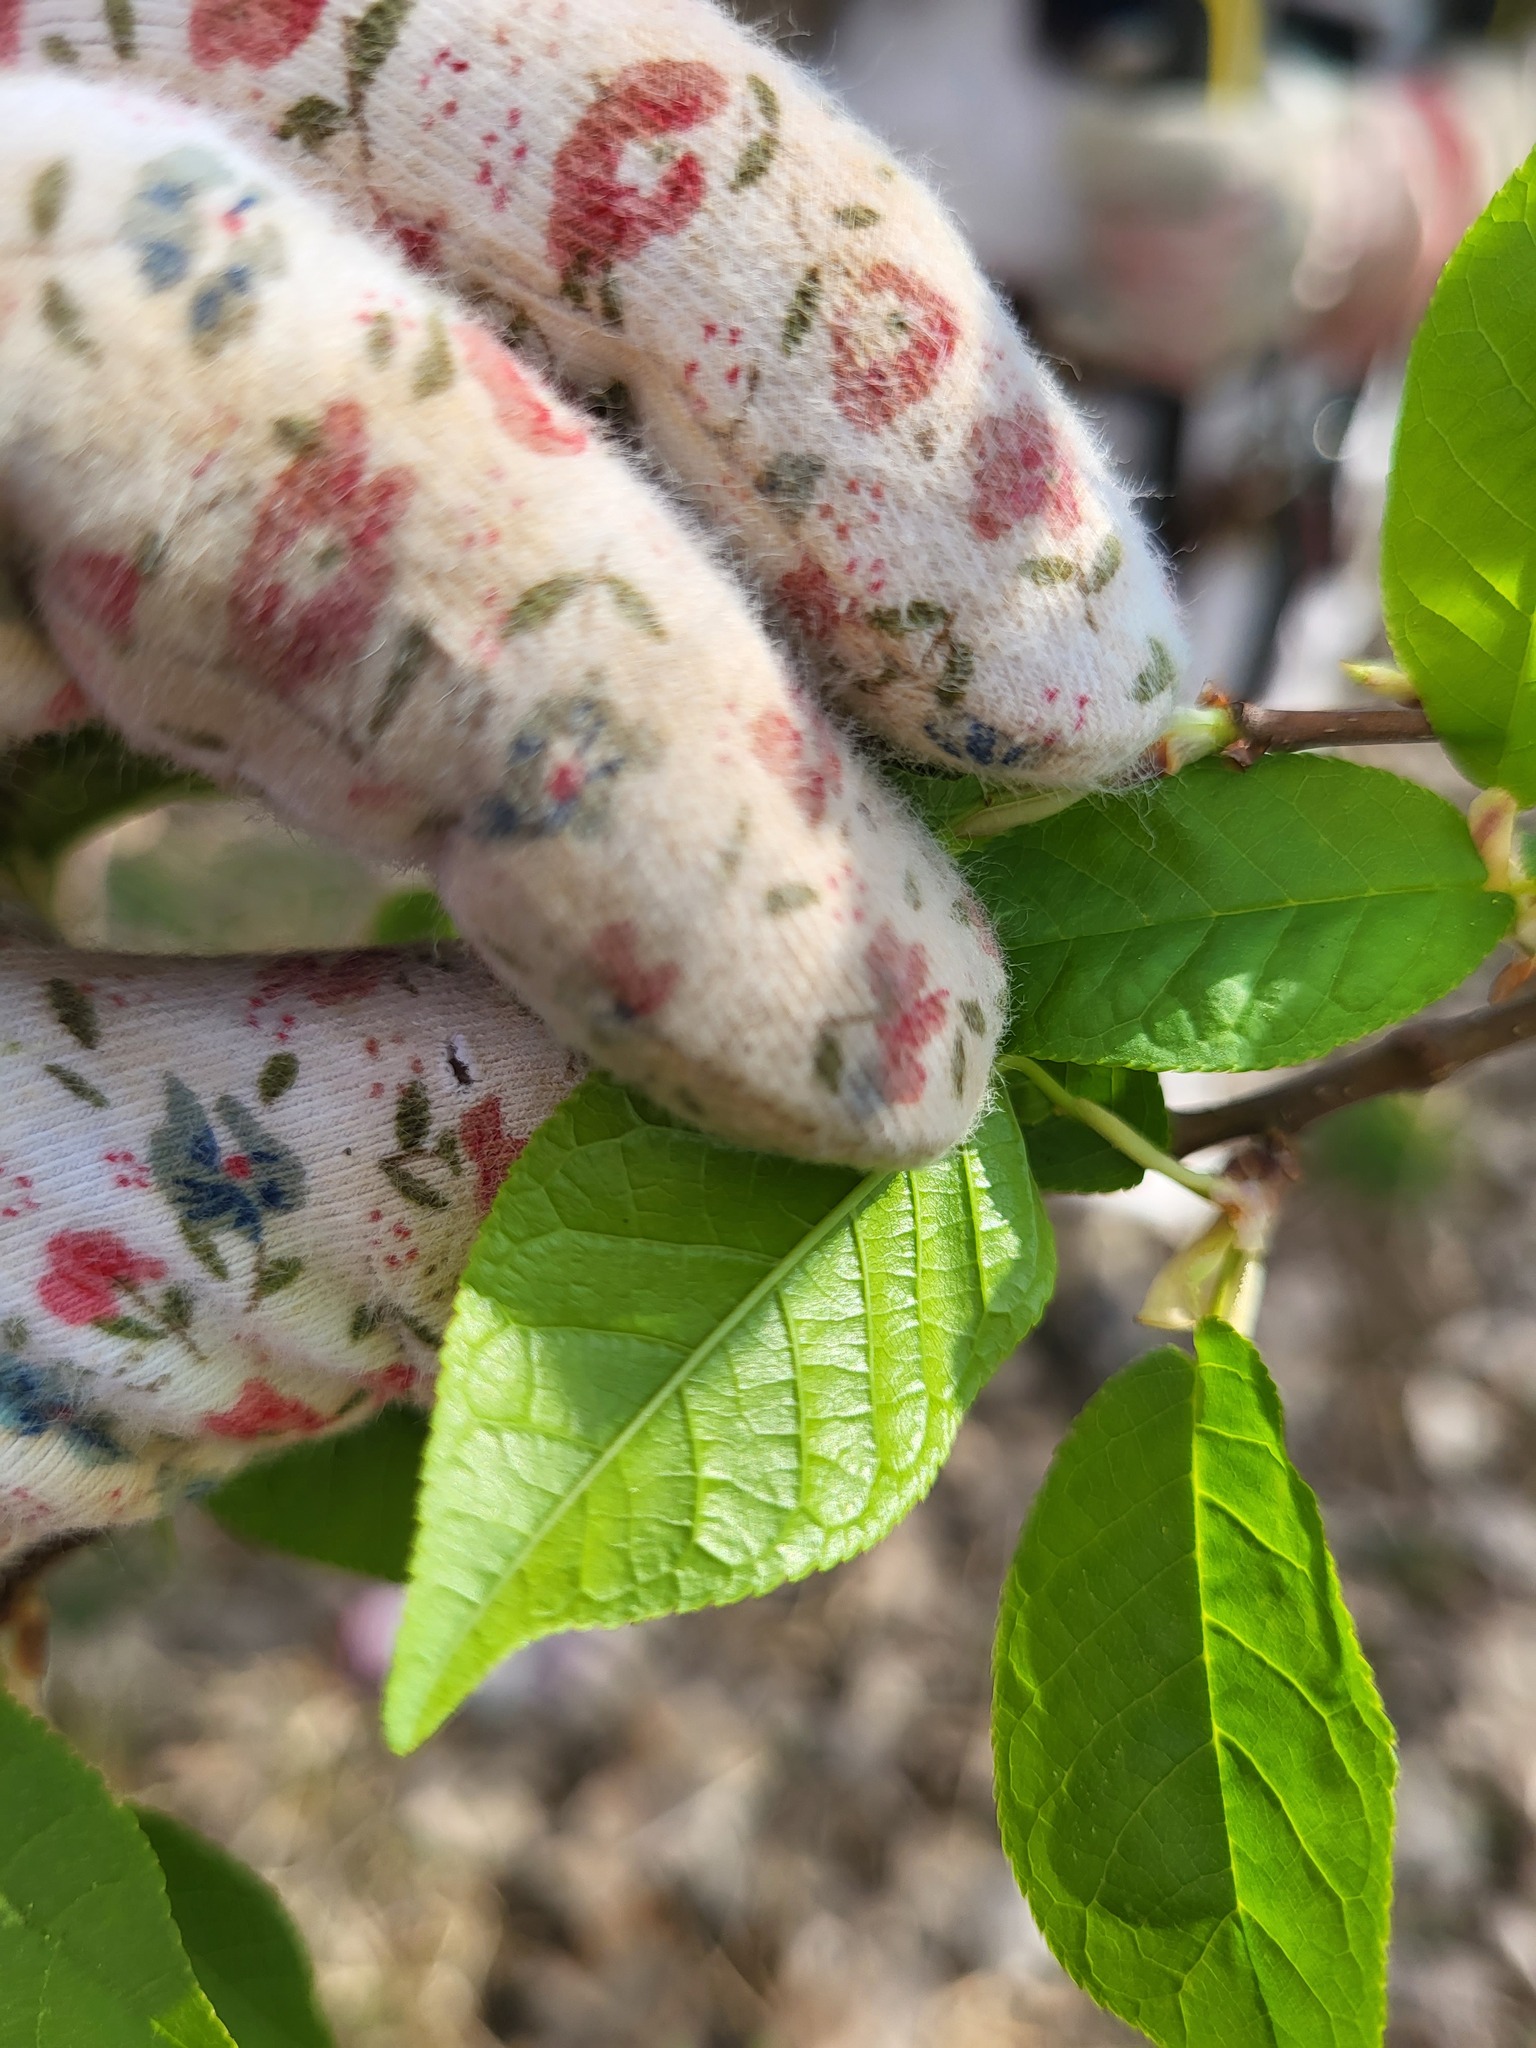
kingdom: Plantae
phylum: Tracheophyta
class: Magnoliopsida
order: Rosales
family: Rosaceae
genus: Prunus
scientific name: Prunus padus
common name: Bird cherry
